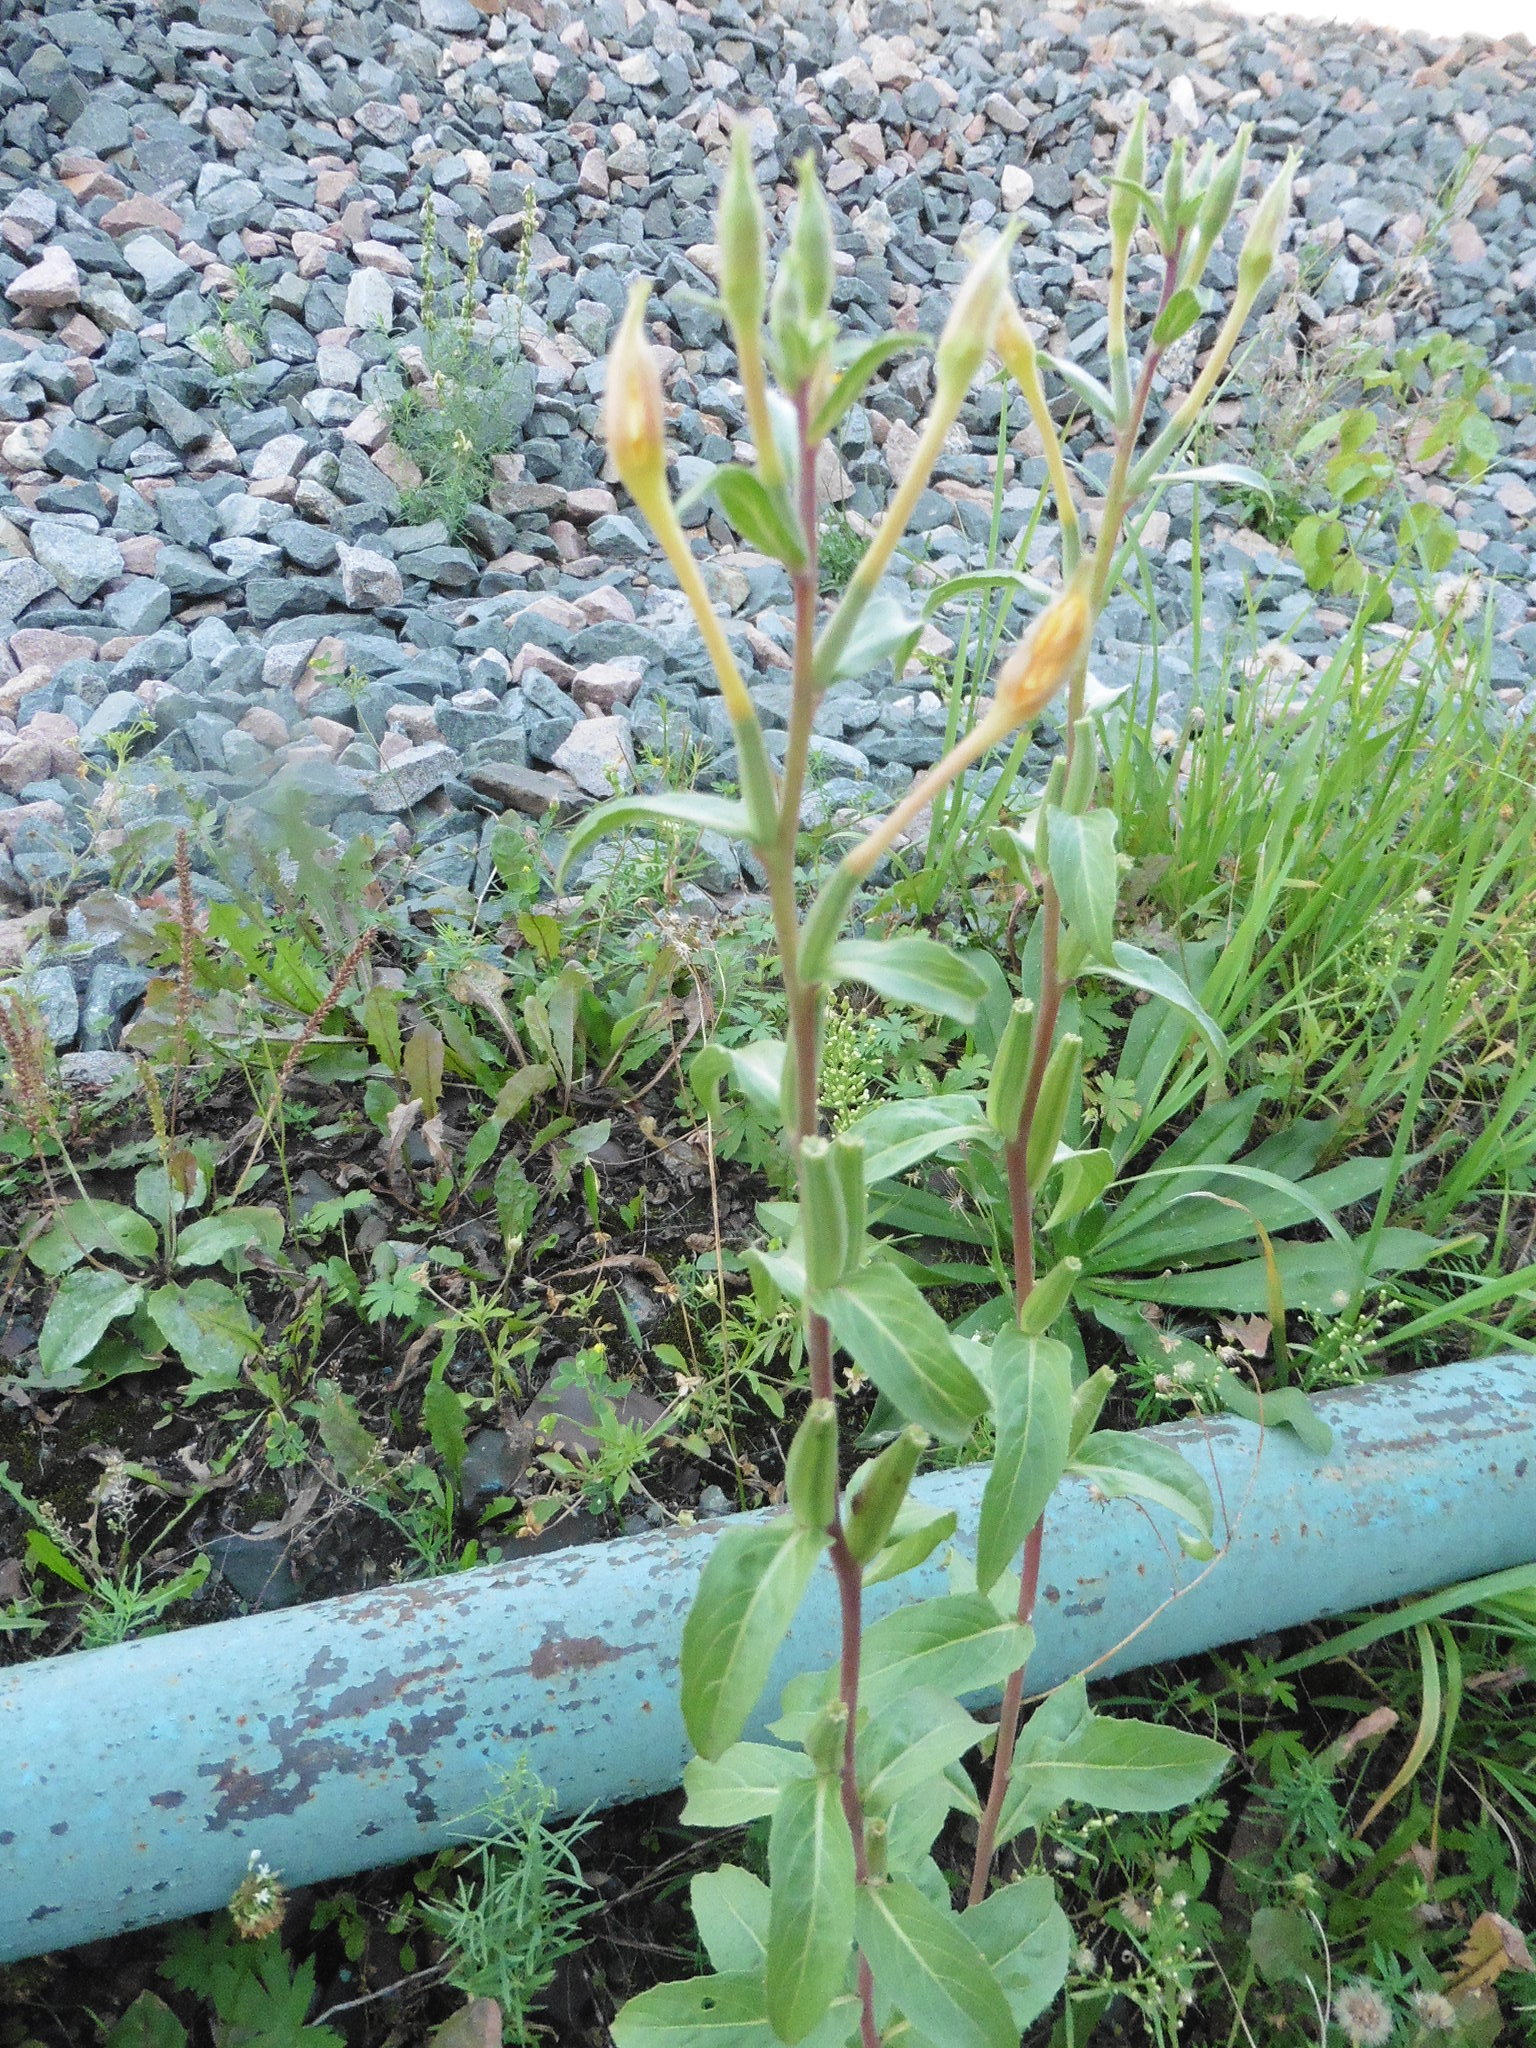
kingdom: Plantae
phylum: Tracheophyta
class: Magnoliopsida
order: Myrtales
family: Onagraceae
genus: Oenothera
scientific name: Oenothera villosa
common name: Hairy evening-primrose
